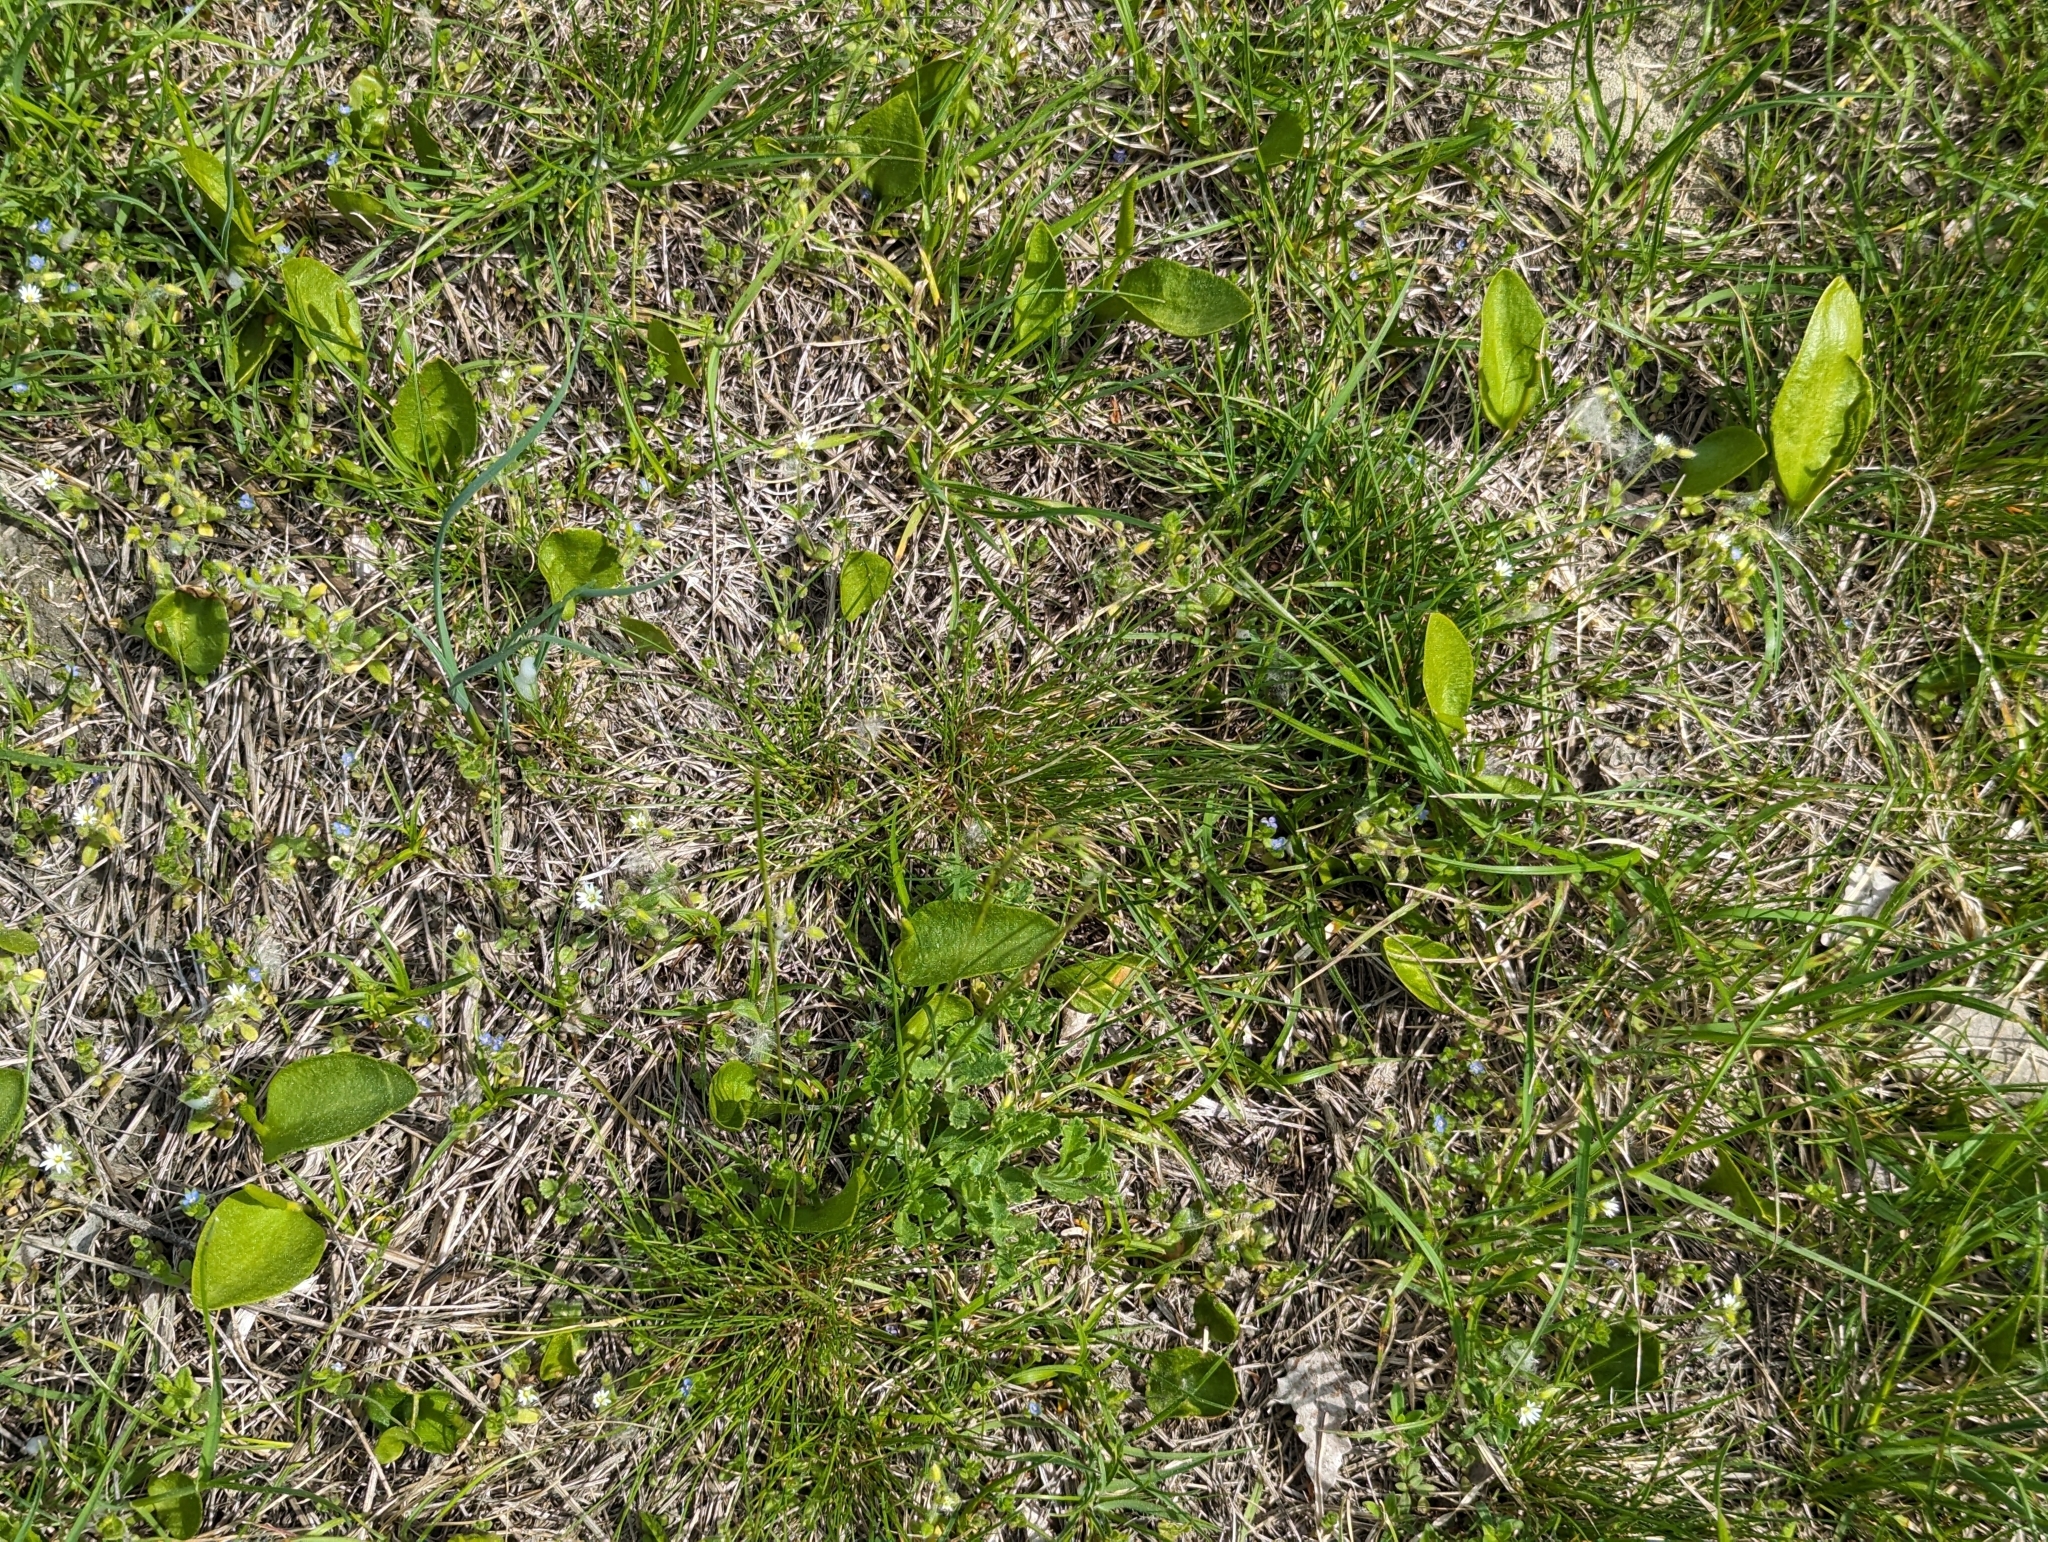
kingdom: Plantae
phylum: Tracheophyta
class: Polypodiopsida
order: Ophioglossales
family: Ophioglossaceae
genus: Ophioglossum
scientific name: Ophioglossum vulgatum
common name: Adder's-tongue
